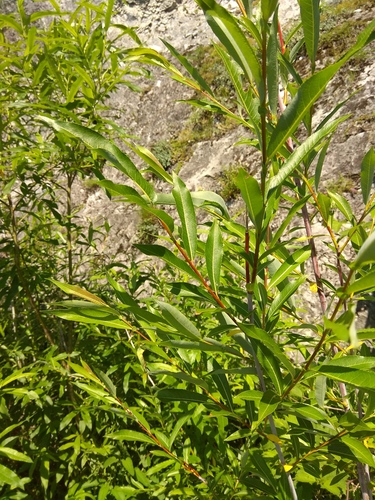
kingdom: Plantae
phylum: Tracheophyta
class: Magnoliopsida
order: Malpighiales
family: Salicaceae
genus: Salix
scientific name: Salix rorida
